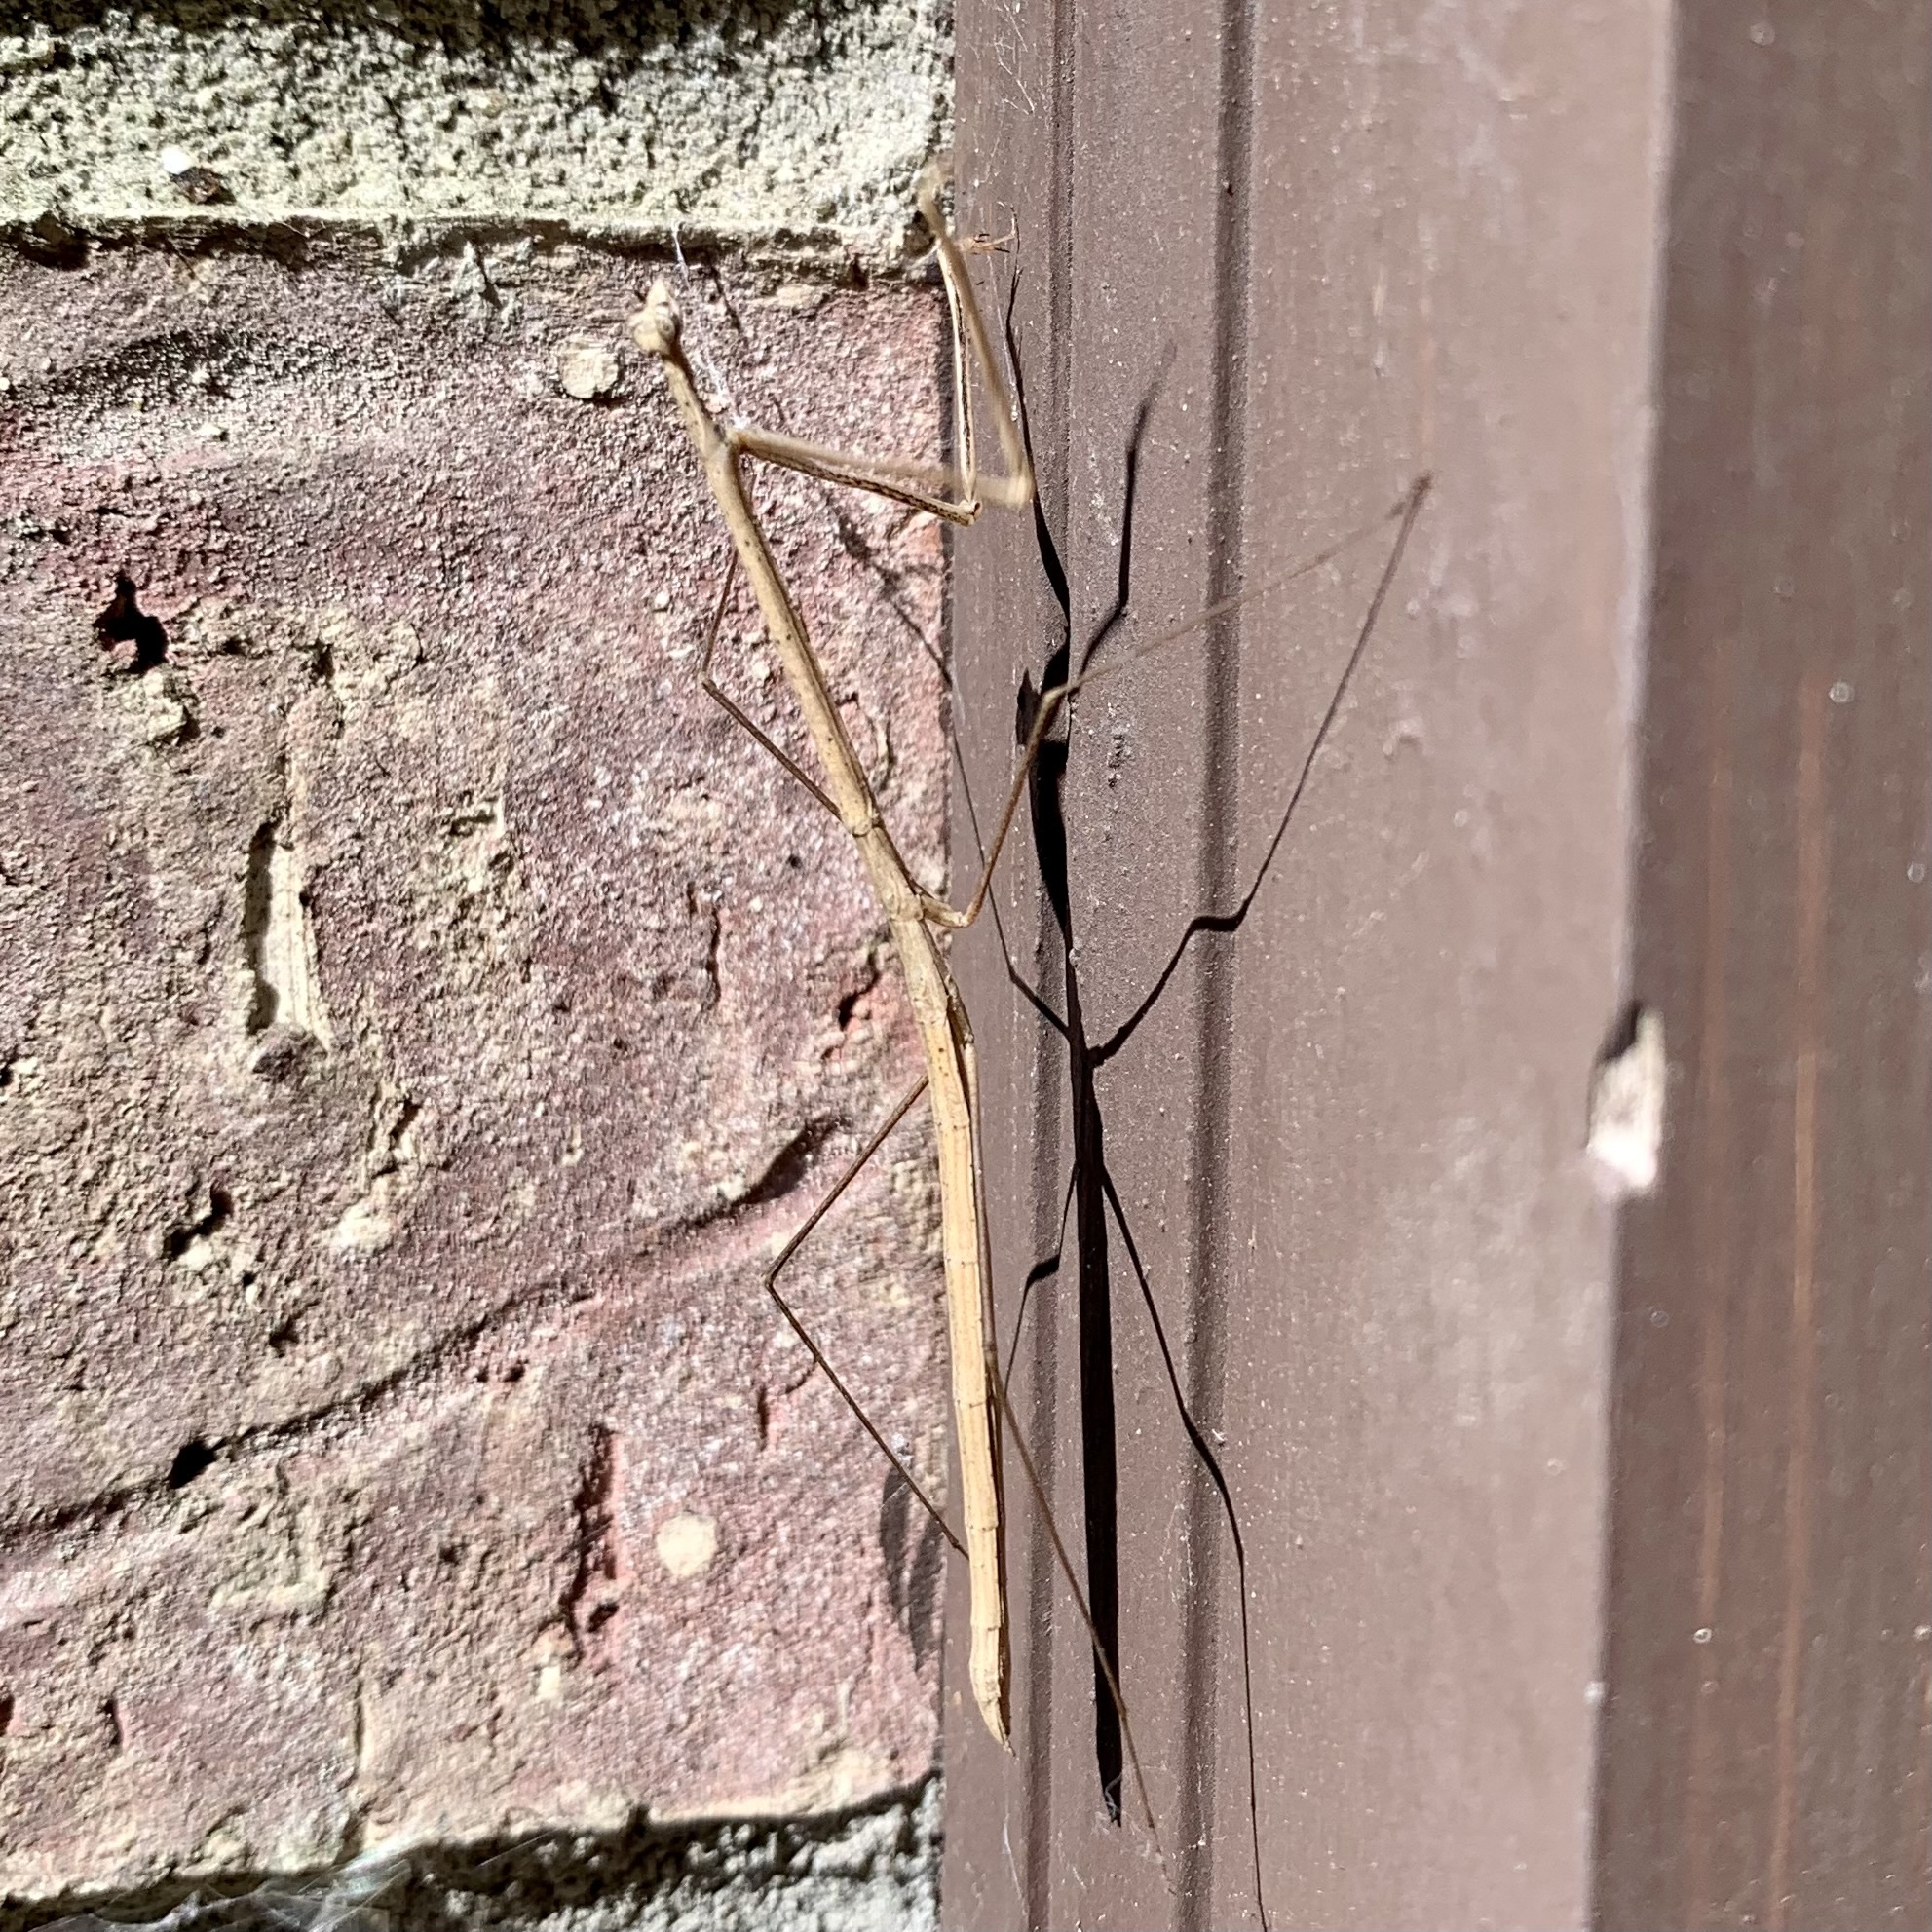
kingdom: Animalia
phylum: Arthropoda
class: Insecta
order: Mantodea
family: Thespidae
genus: Thesprotia
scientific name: Thesprotia graminis
